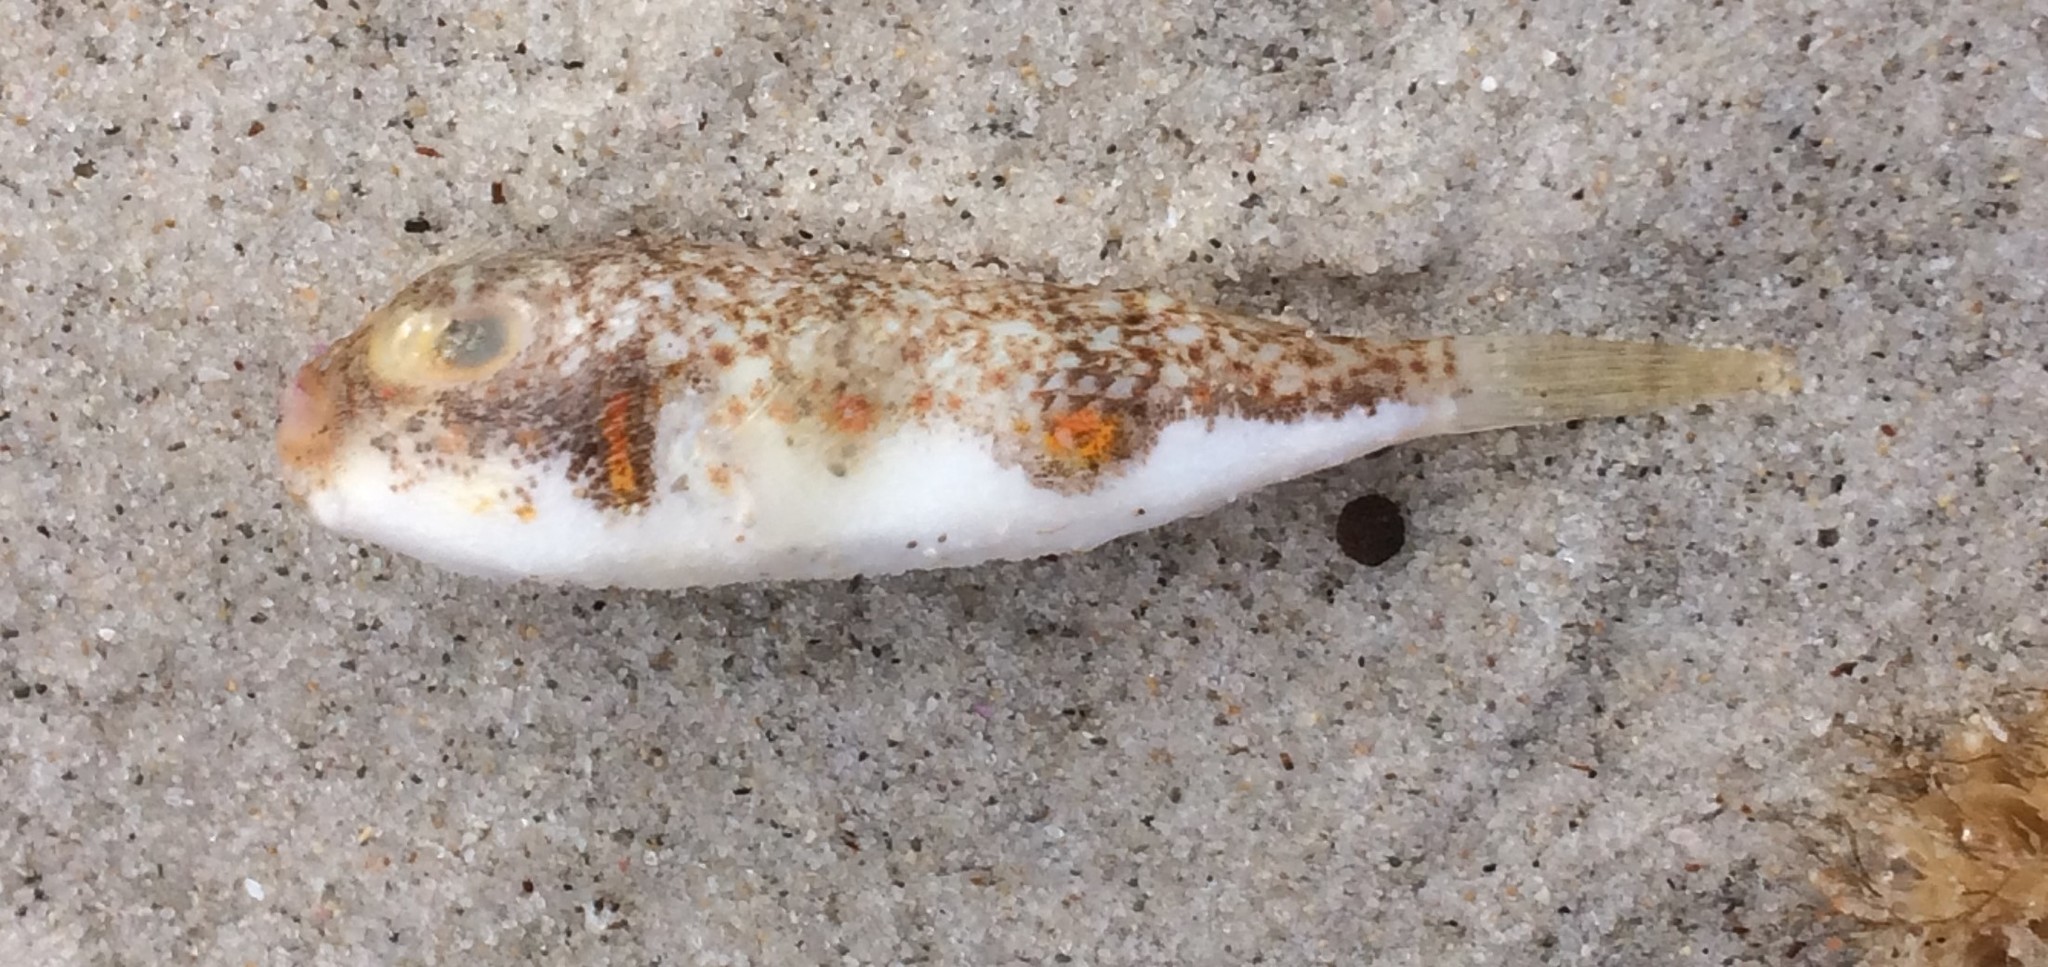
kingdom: Animalia
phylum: Chordata
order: Tetraodontiformes
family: Tetraodontidae
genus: Polyspina
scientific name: Polyspina piosae
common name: Orange-barred pufferfish
